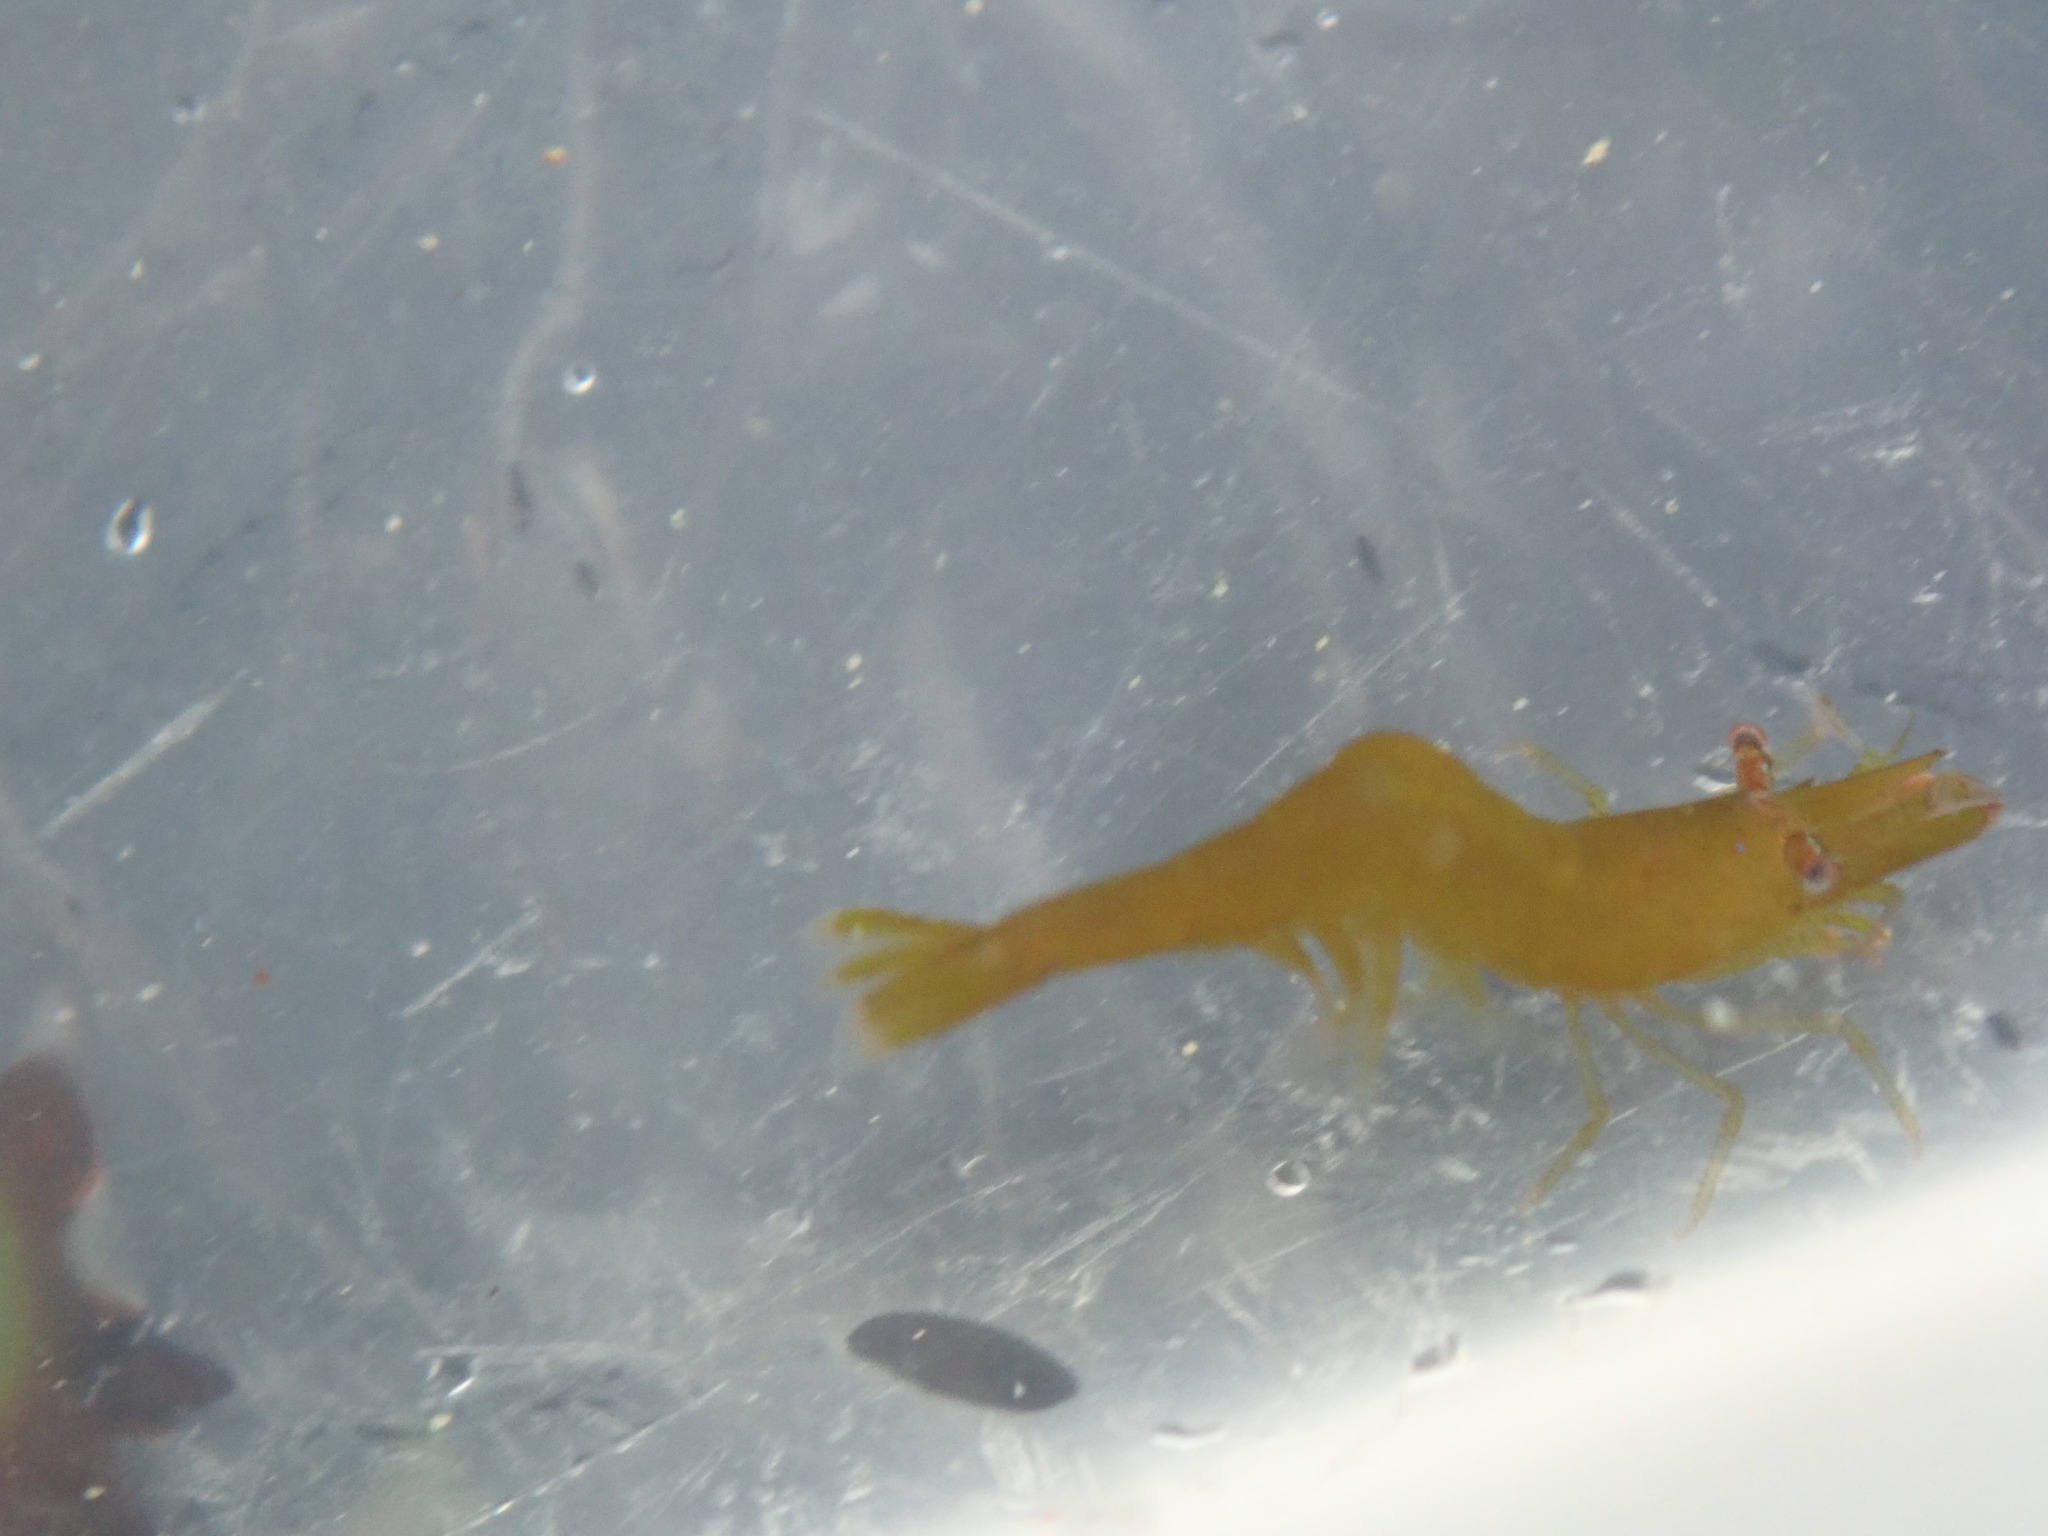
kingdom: Animalia
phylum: Arthropoda
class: Malacostraca
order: Decapoda
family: Hippolytidae
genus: Hippolyte
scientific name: Hippolyte varians
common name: Chamaeleon prawn
